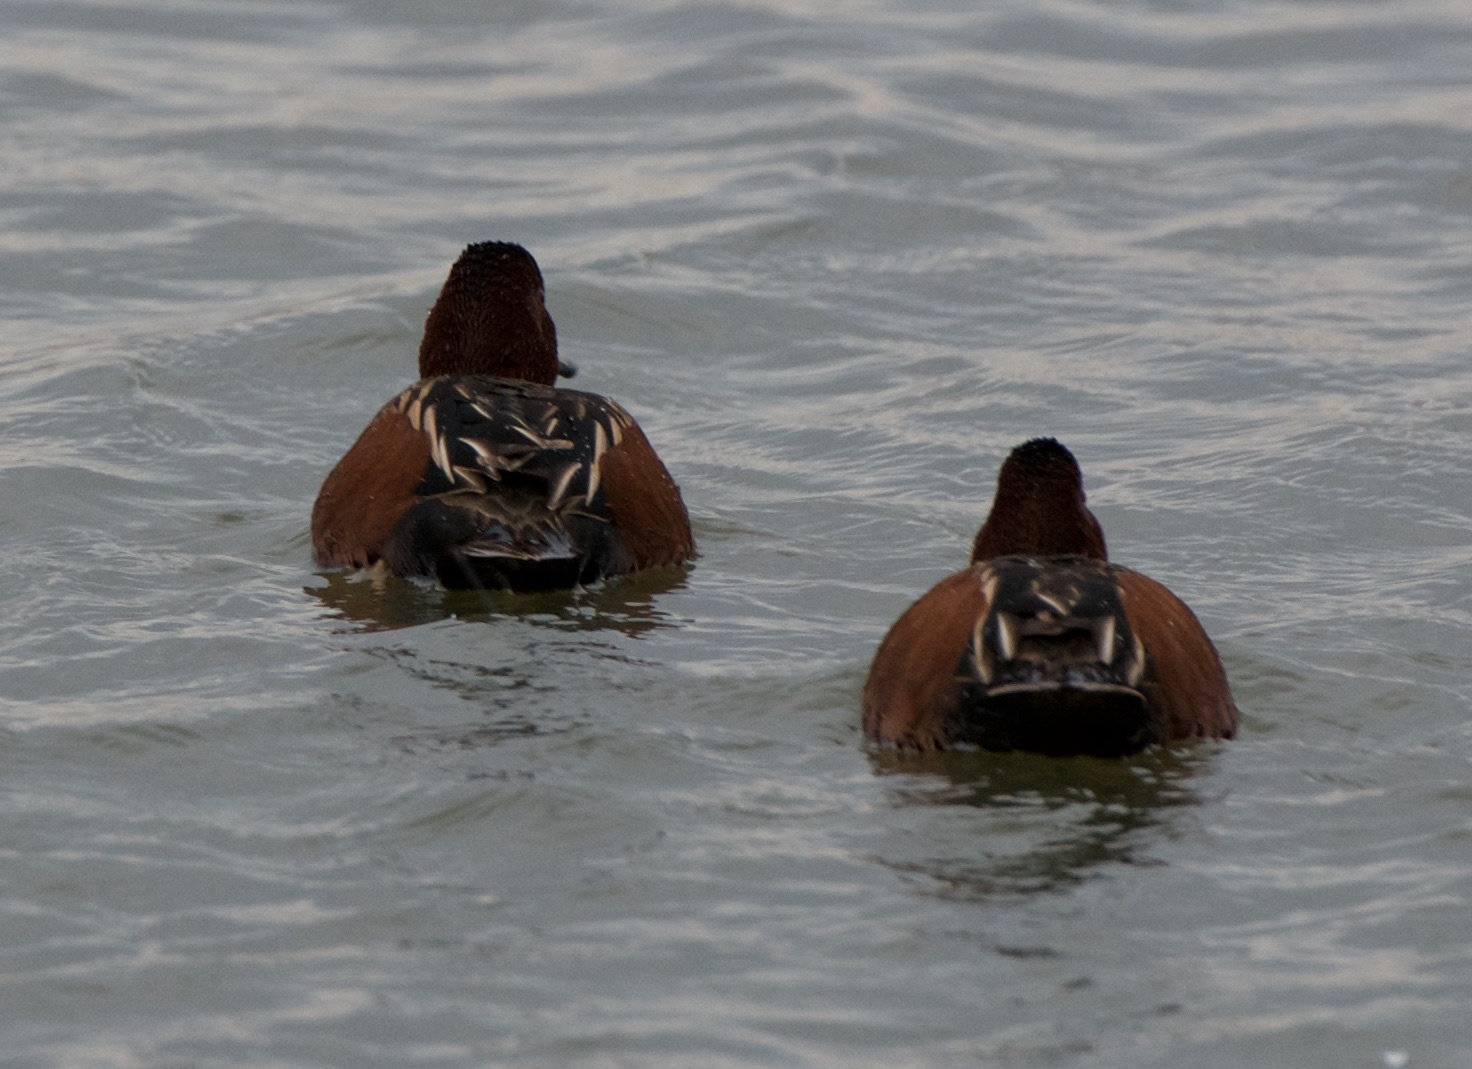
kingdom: Animalia
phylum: Chordata
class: Aves
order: Anseriformes
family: Anatidae
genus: Spatula
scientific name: Spatula cyanoptera
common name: Cinnamon teal
